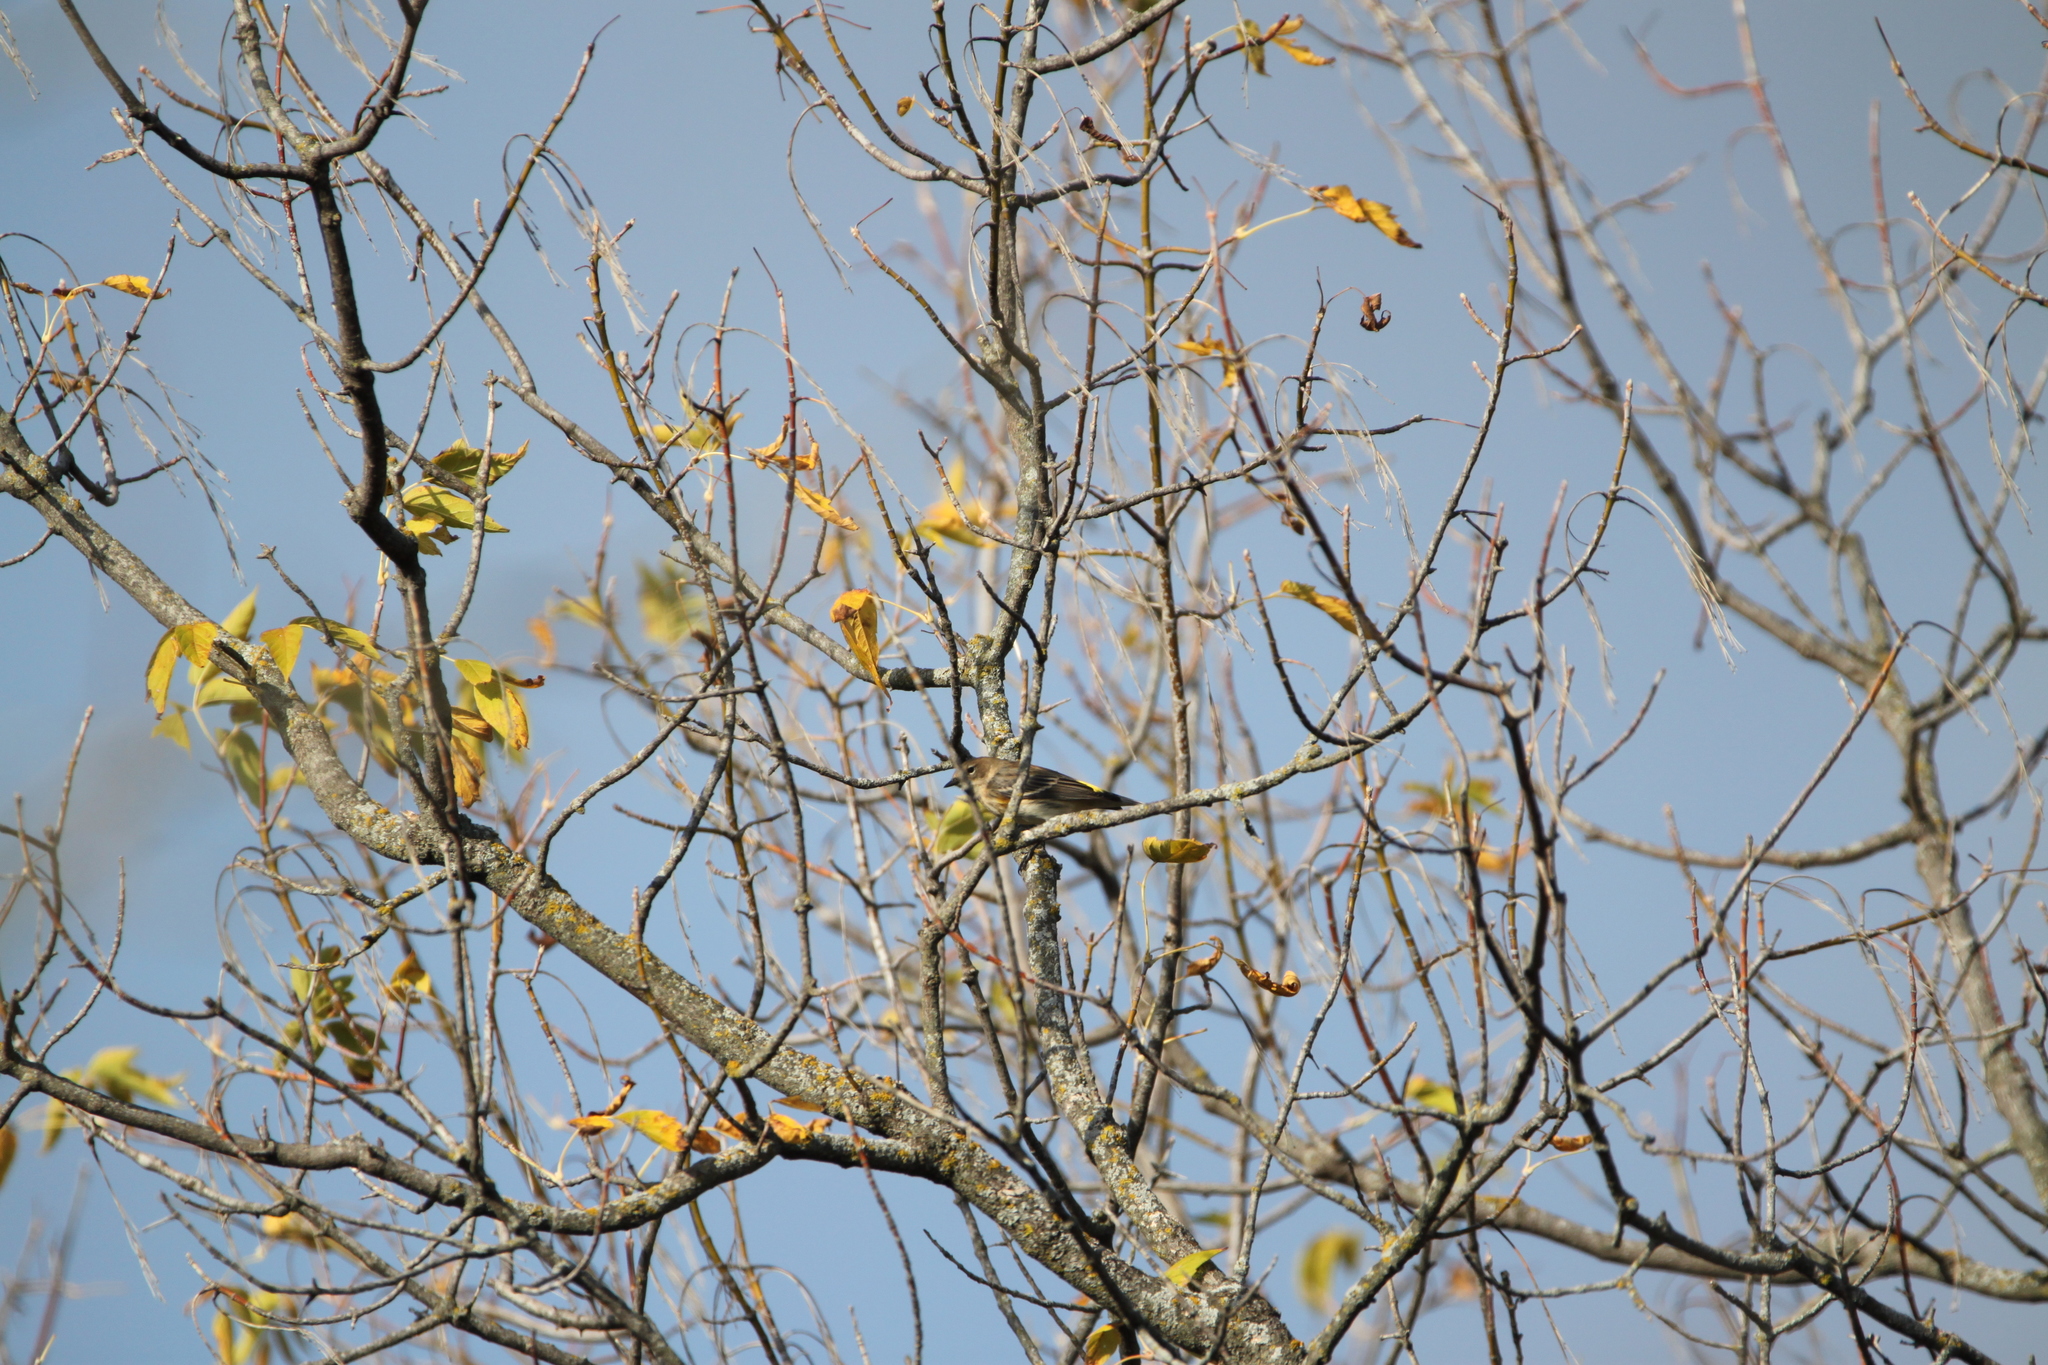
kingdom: Animalia
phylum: Chordata
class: Aves
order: Passeriformes
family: Parulidae
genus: Setophaga
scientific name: Setophaga coronata
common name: Myrtle warbler
